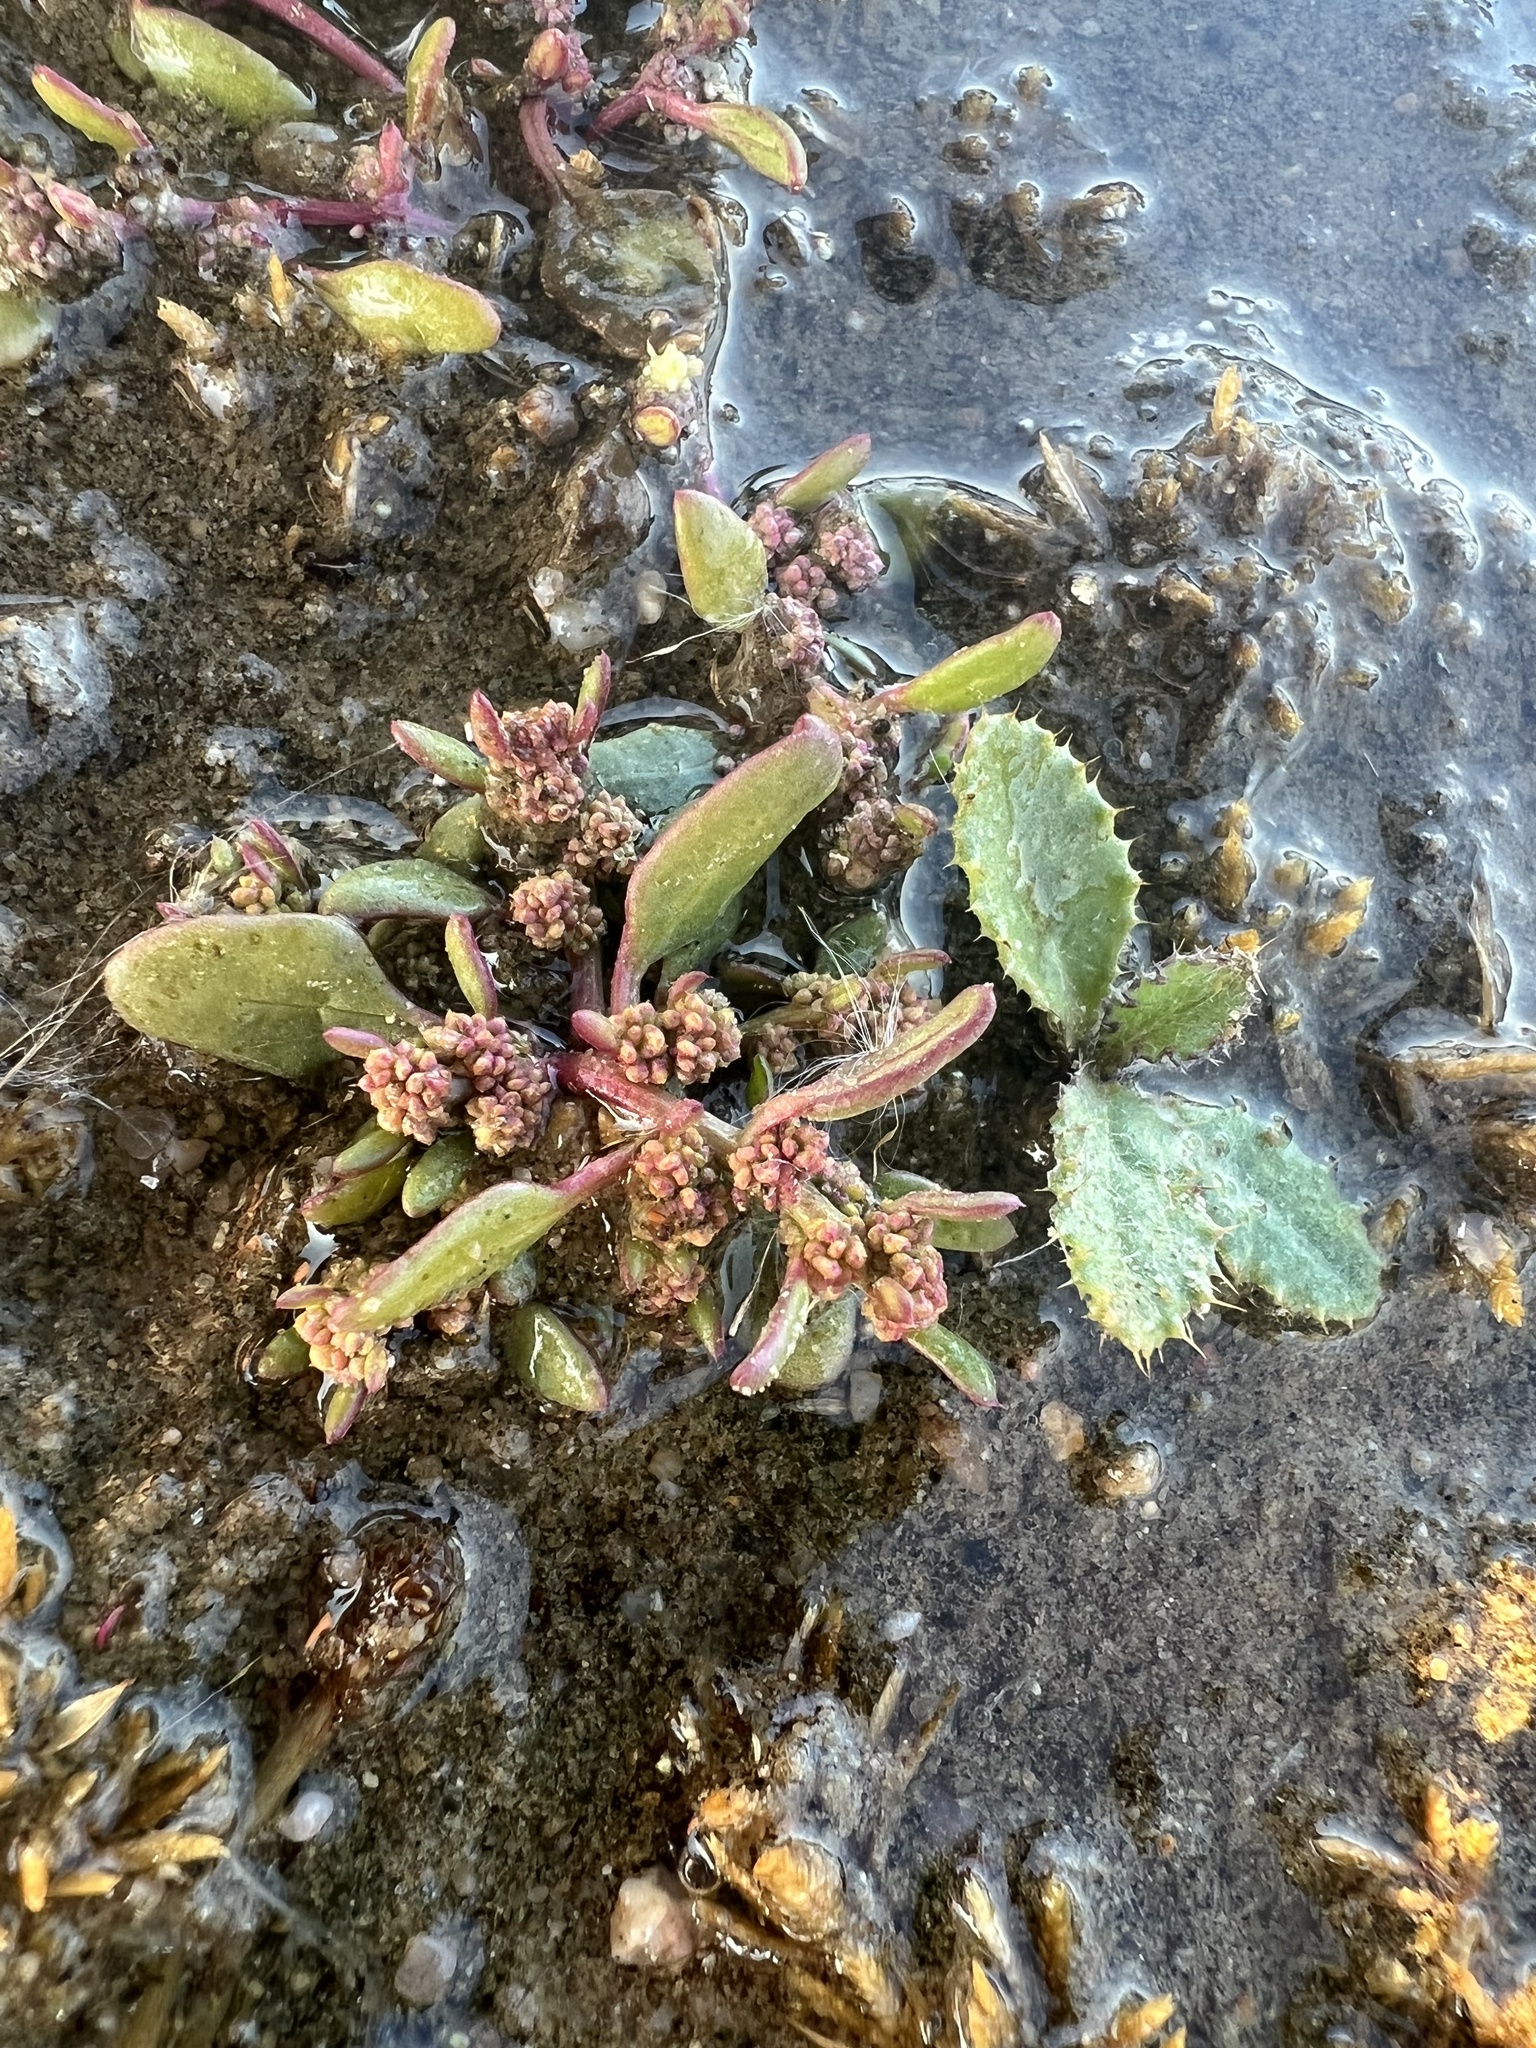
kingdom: Plantae
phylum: Tracheophyta
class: Magnoliopsida
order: Caryophyllales
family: Amaranthaceae
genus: Oxybasis
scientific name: Oxybasis glauca
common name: Glaucous goosefoot
